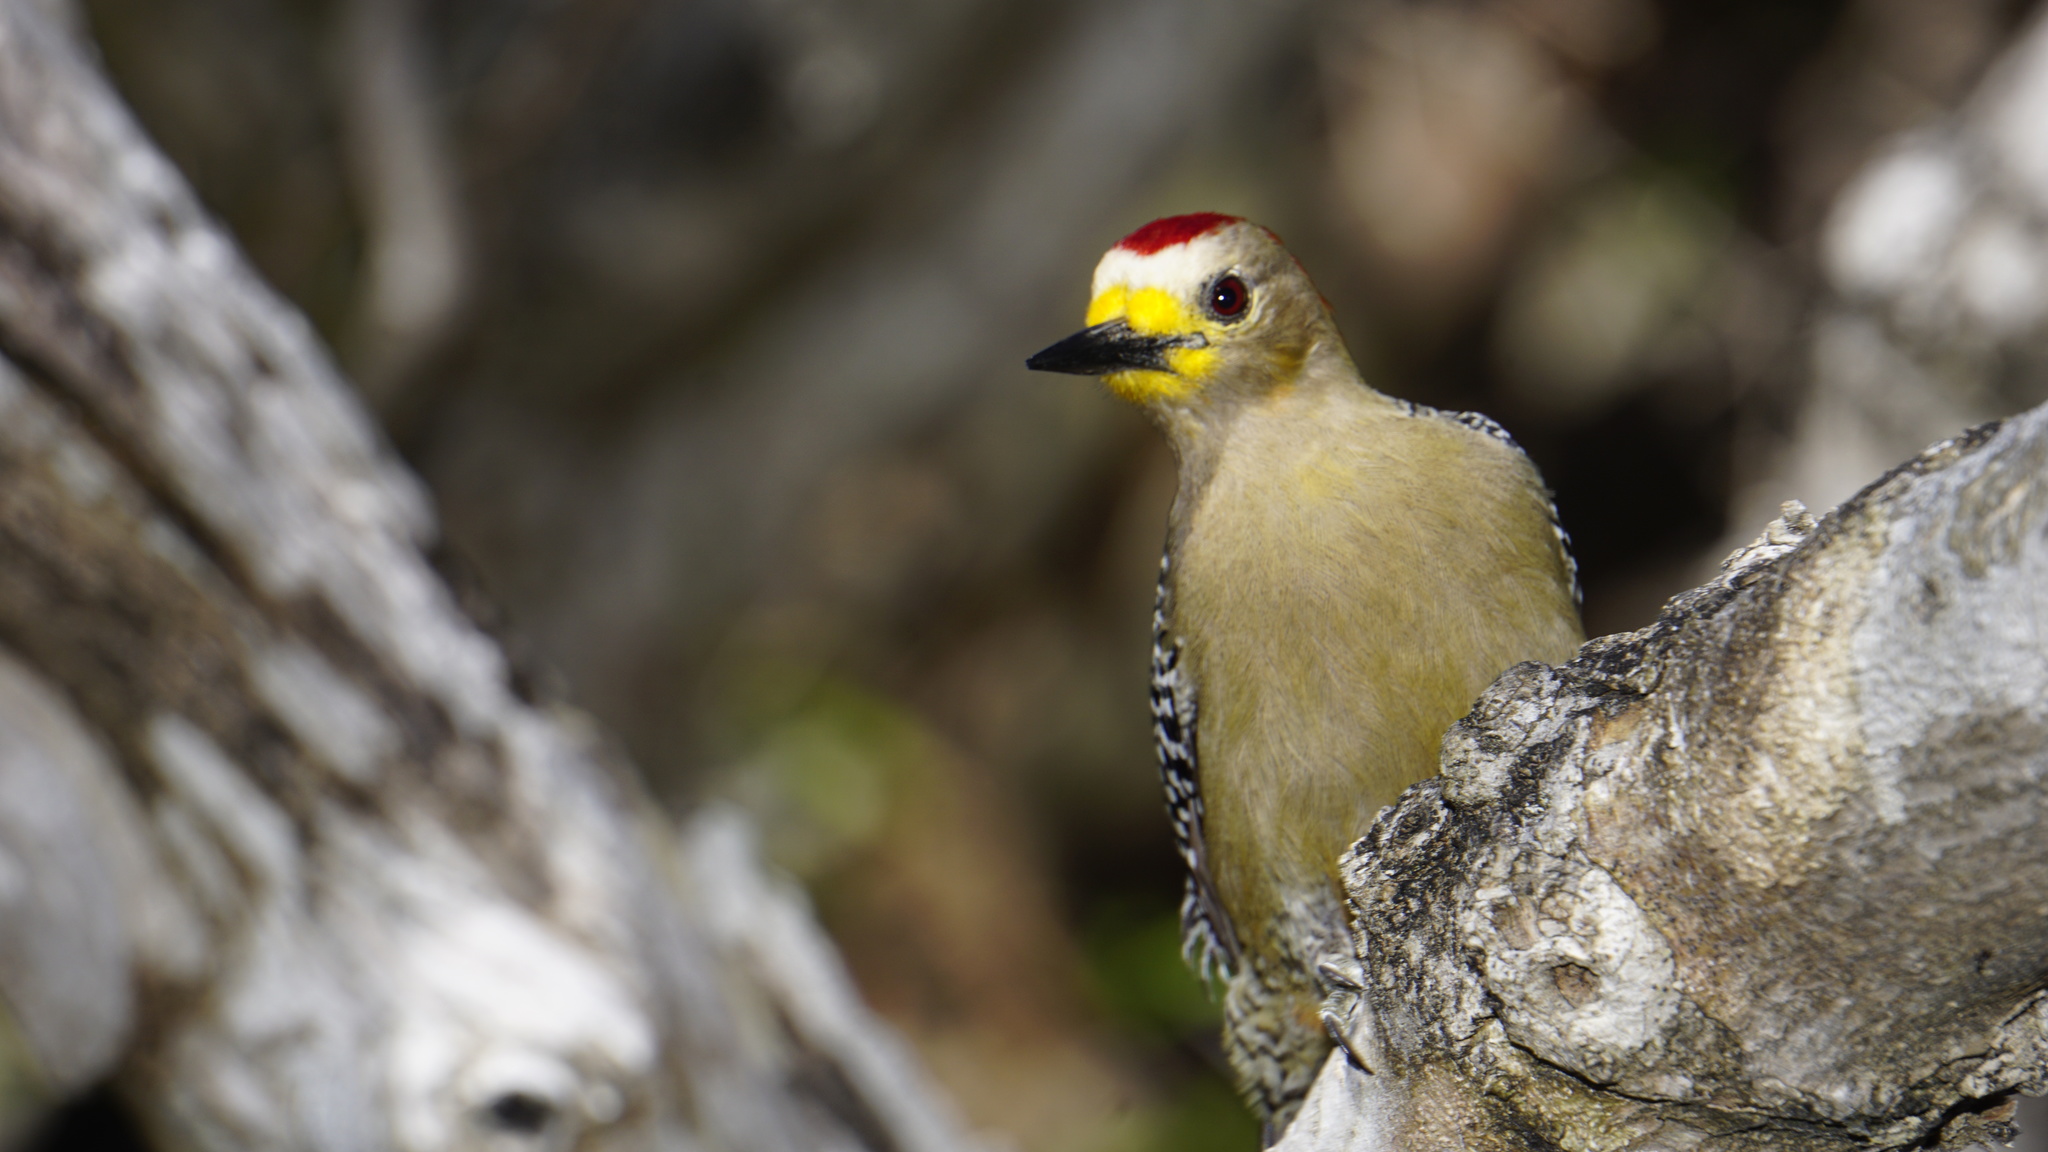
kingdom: Animalia
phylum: Chordata
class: Aves
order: Piciformes
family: Picidae
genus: Melanerpes
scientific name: Melanerpes pygmaeus
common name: Yucatan woodpecker
